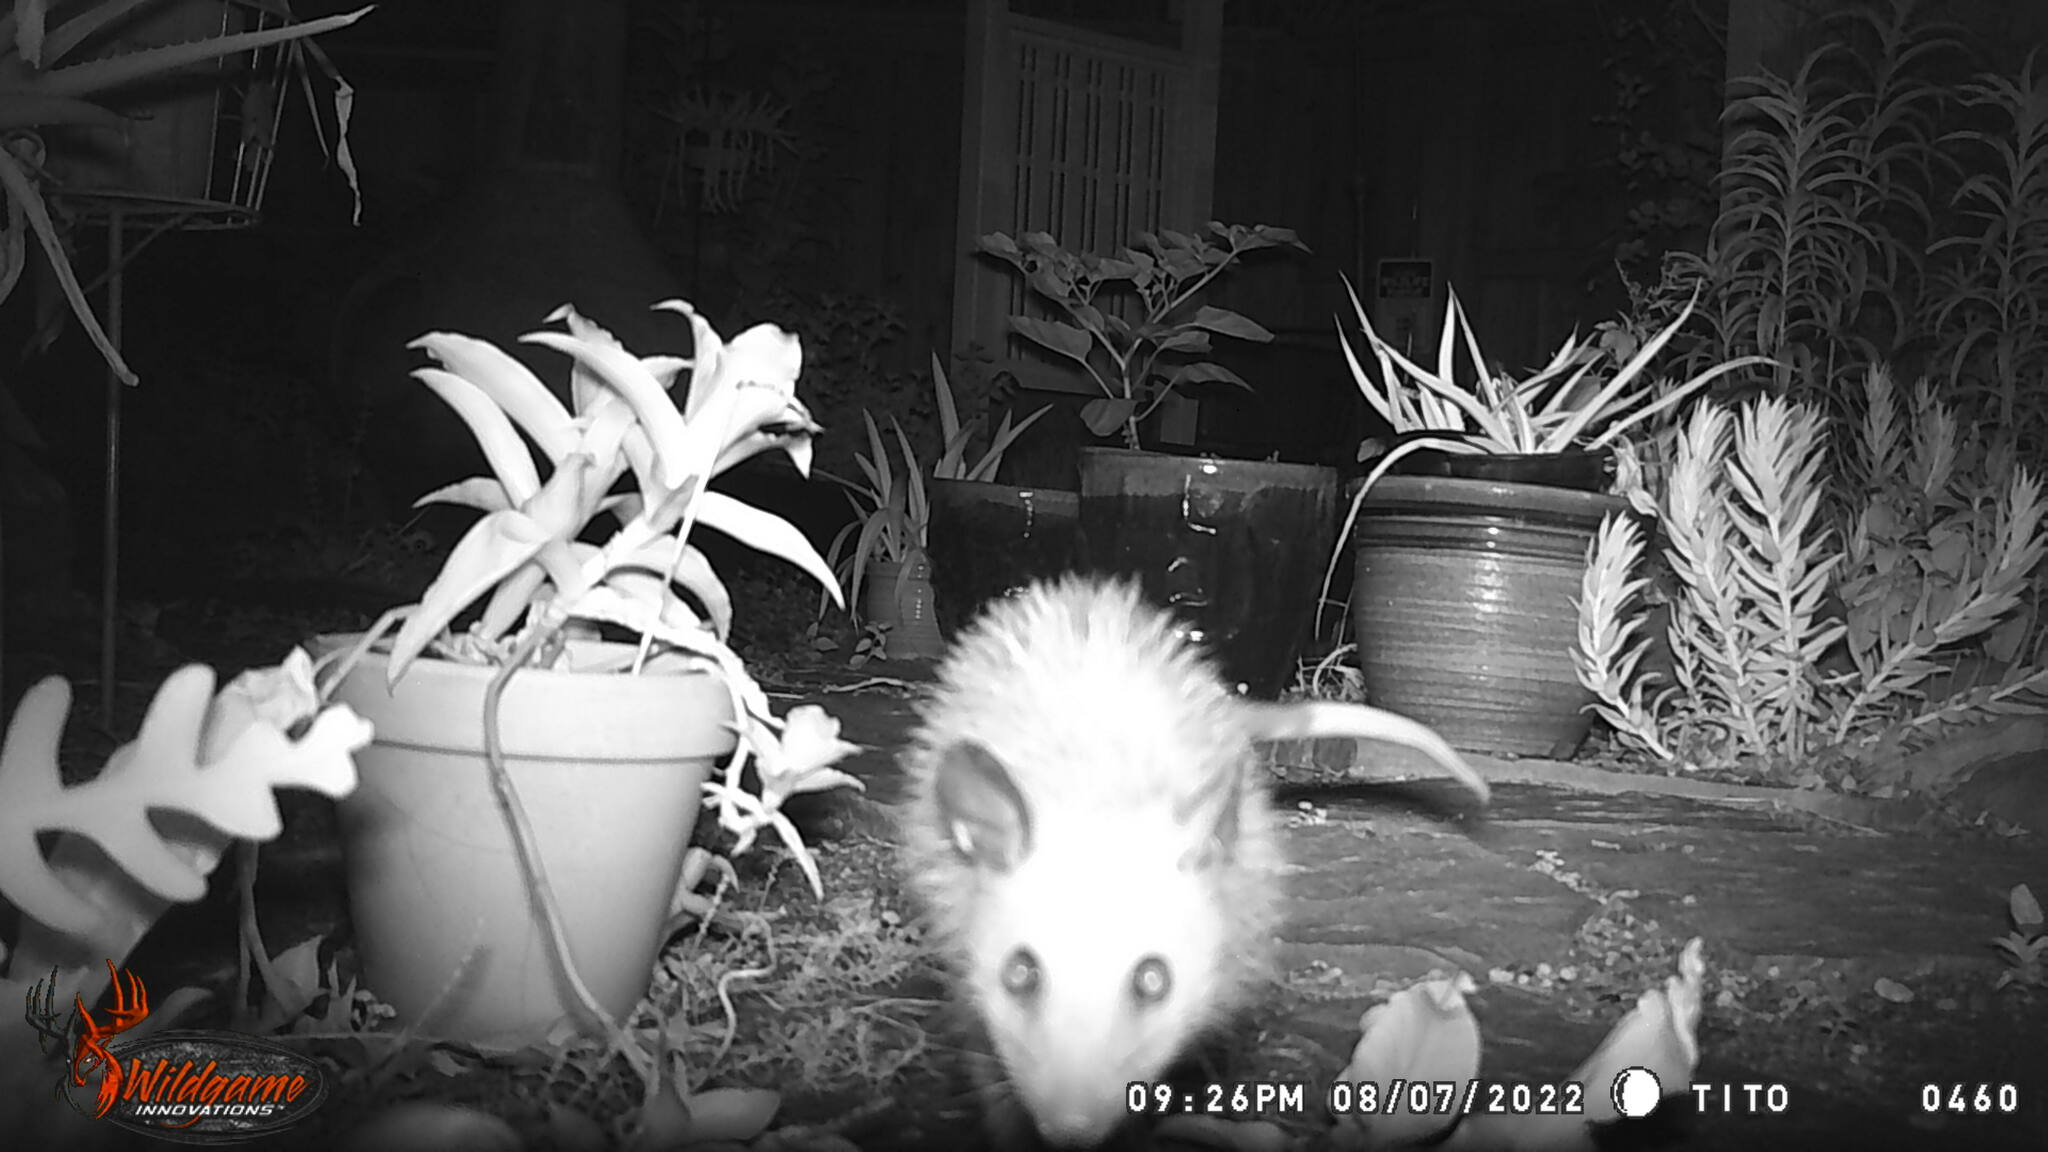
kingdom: Animalia
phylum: Chordata
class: Mammalia
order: Didelphimorphia
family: Didelphidae
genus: Didelphis
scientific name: Didelphis virginiana
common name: Virginia opossum
